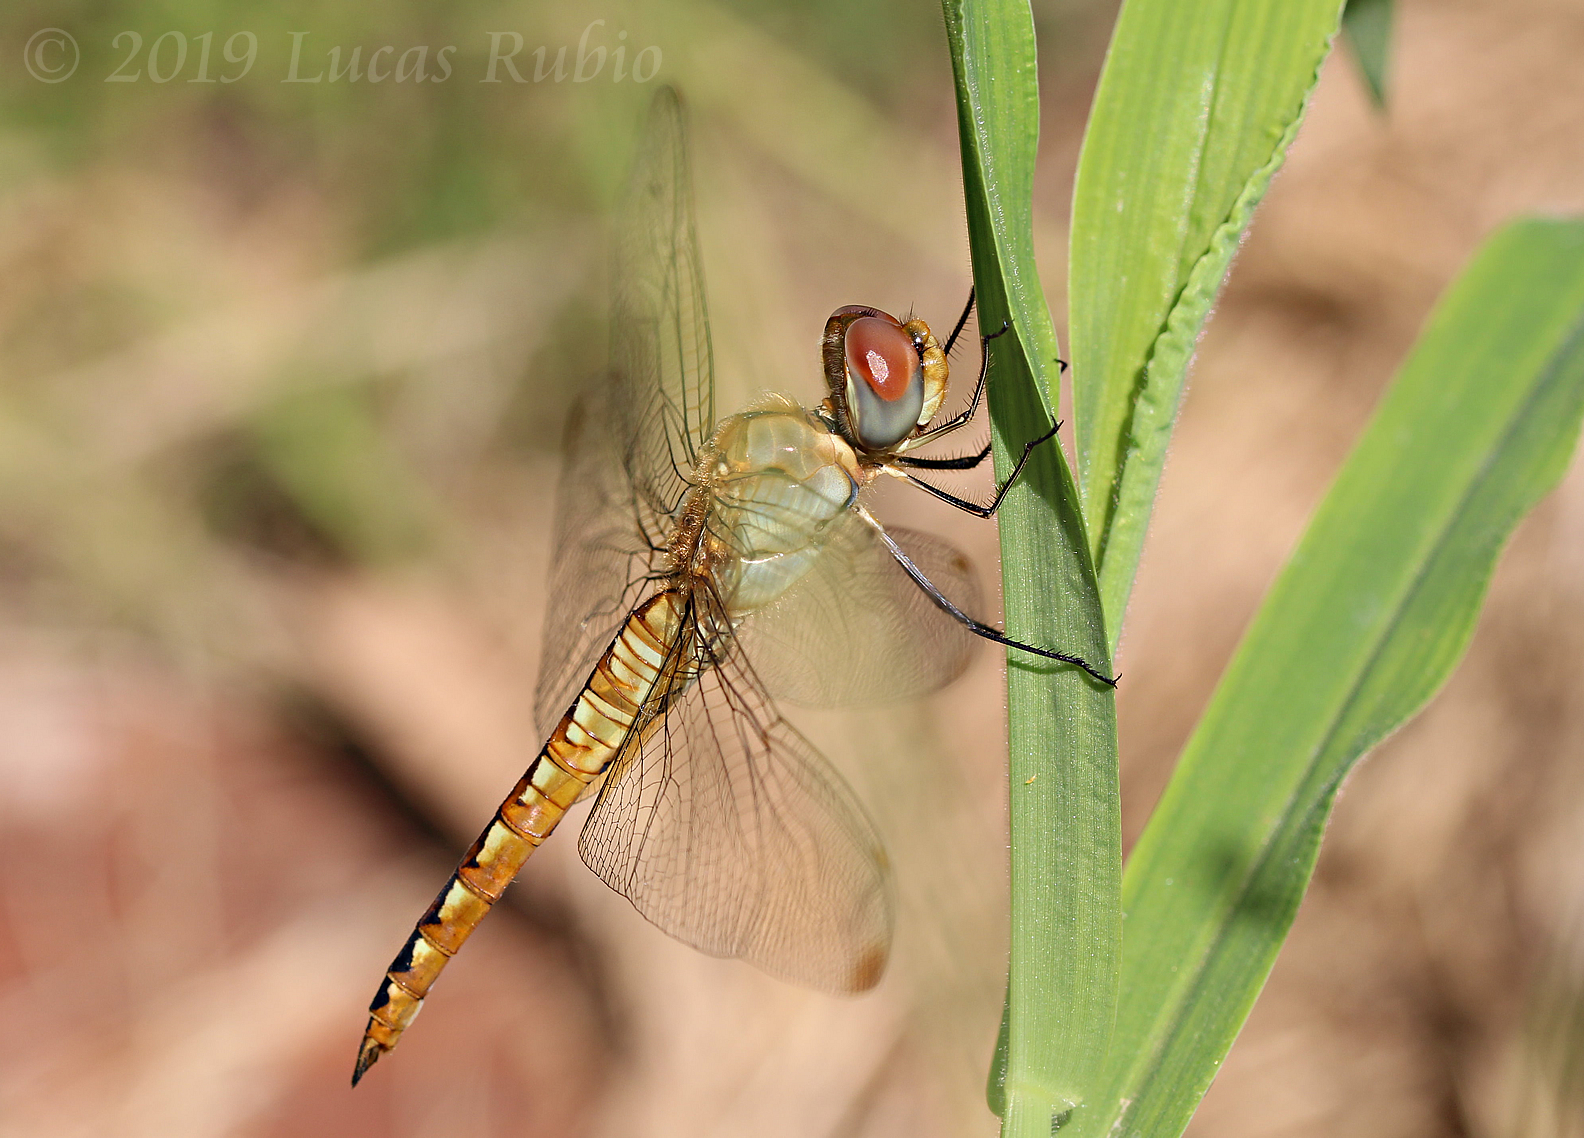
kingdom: Animalia
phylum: Arthropoda
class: Insecta
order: Odonata
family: Libellulidae
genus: Pantala
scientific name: Pantala flavescens
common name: Wandering glider
